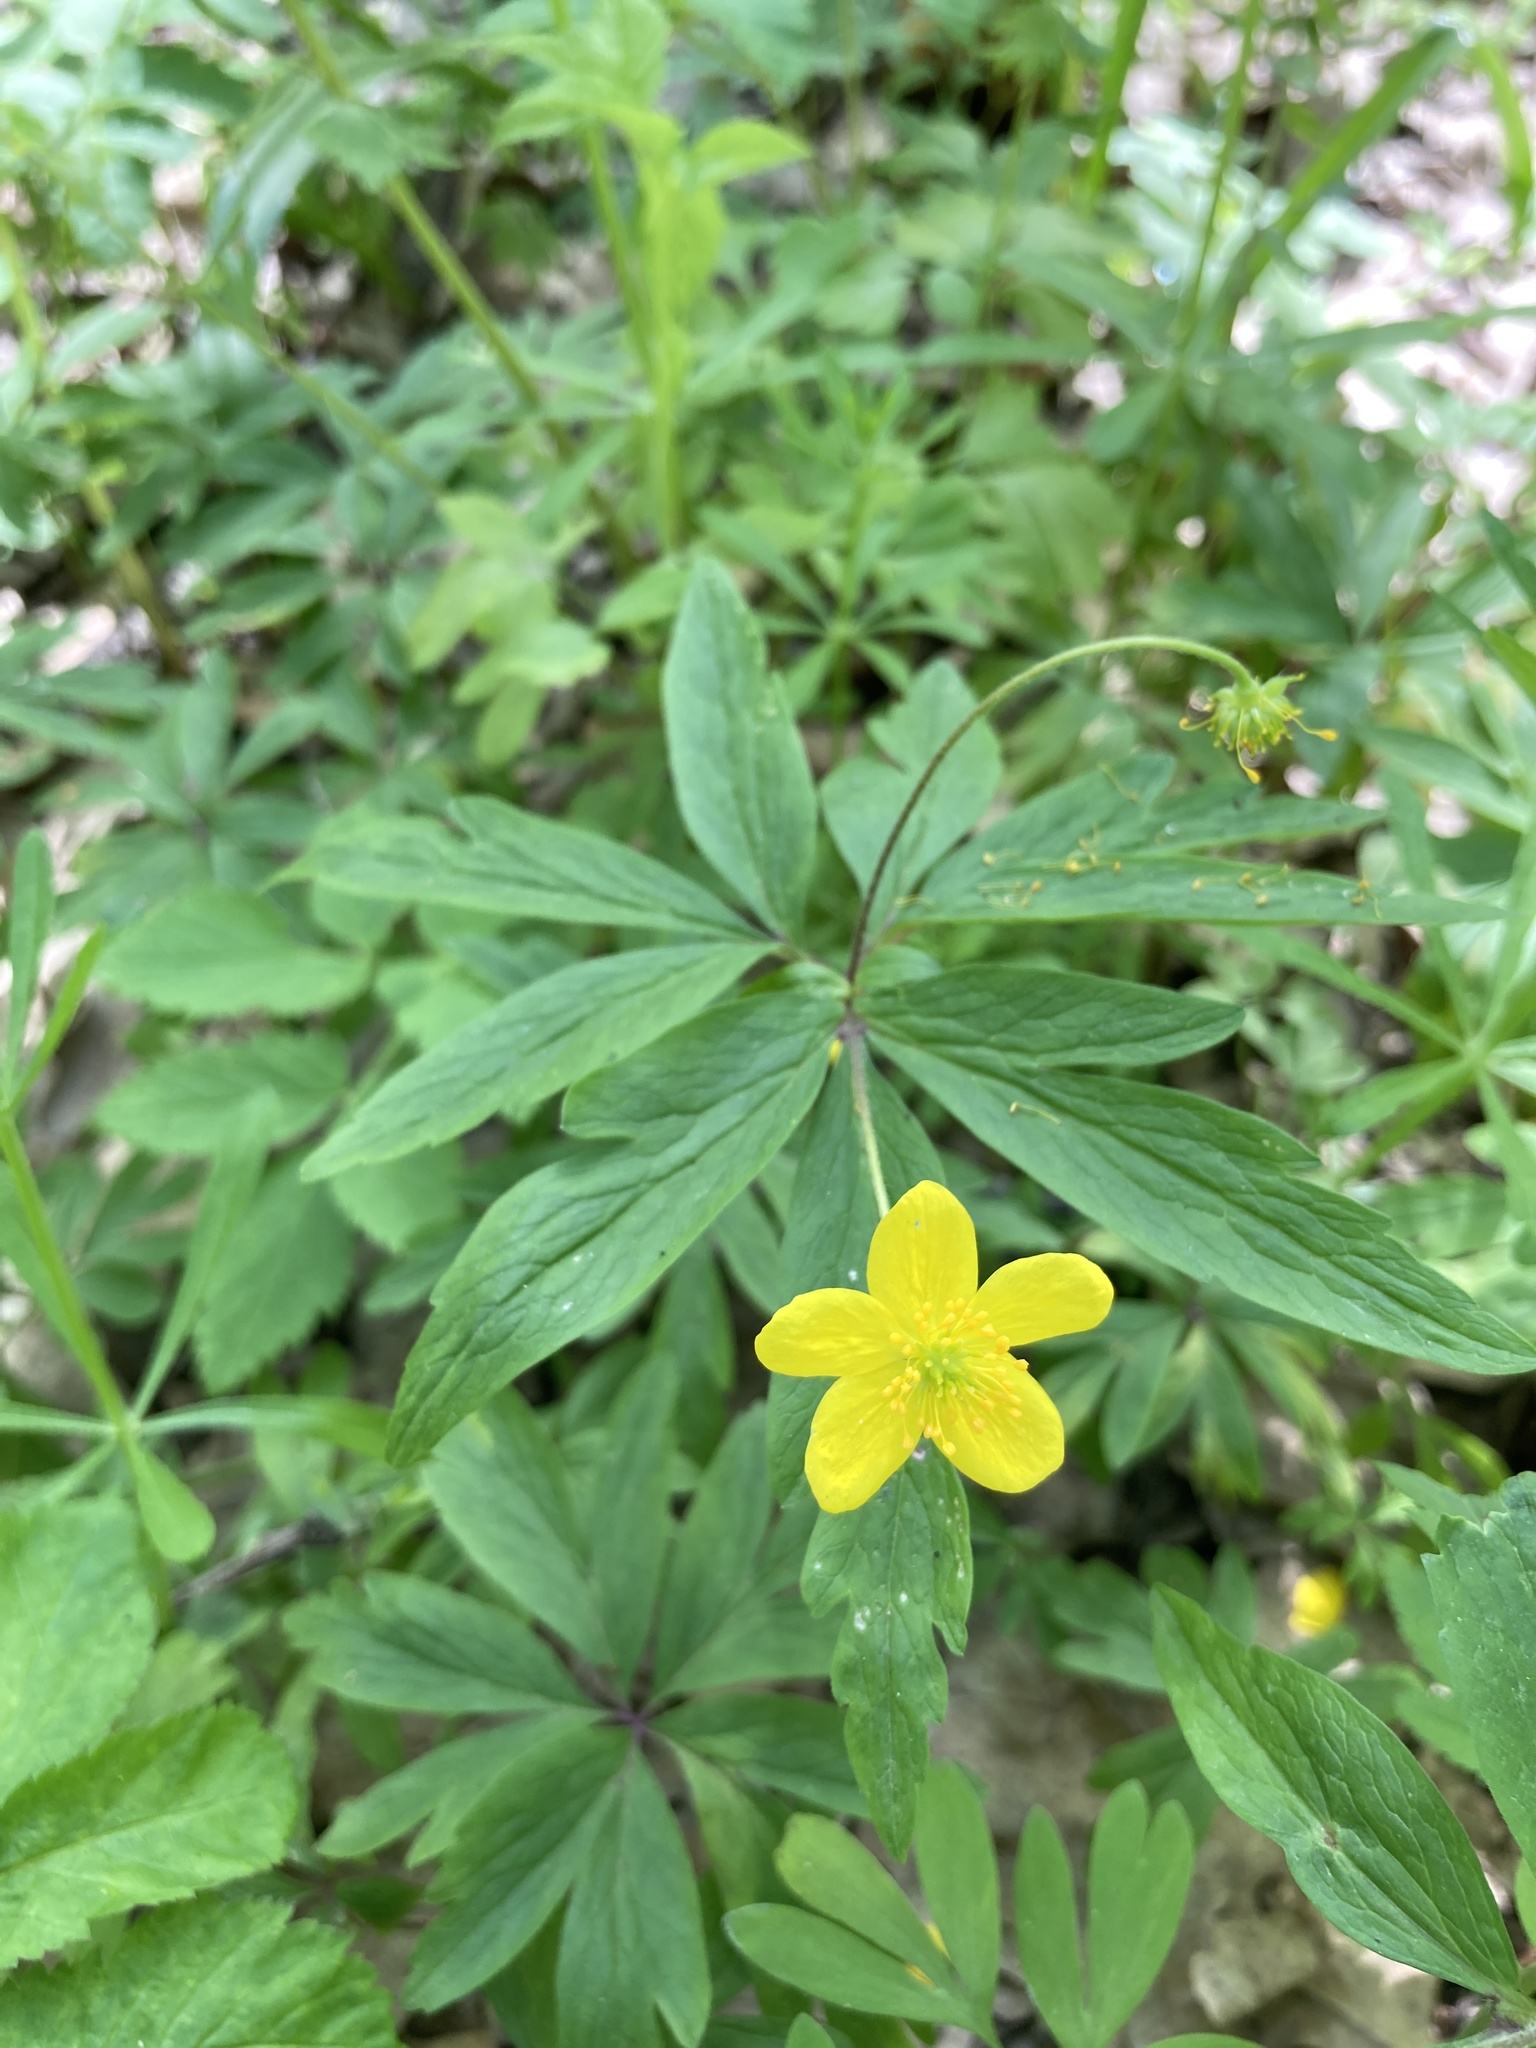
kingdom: Plantae
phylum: Tracheophyta
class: Magnoliopsida
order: Ranunculales
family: Ranunculaceae
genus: Anemone
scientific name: Anemone ranunculoides
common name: Yellow anemone
